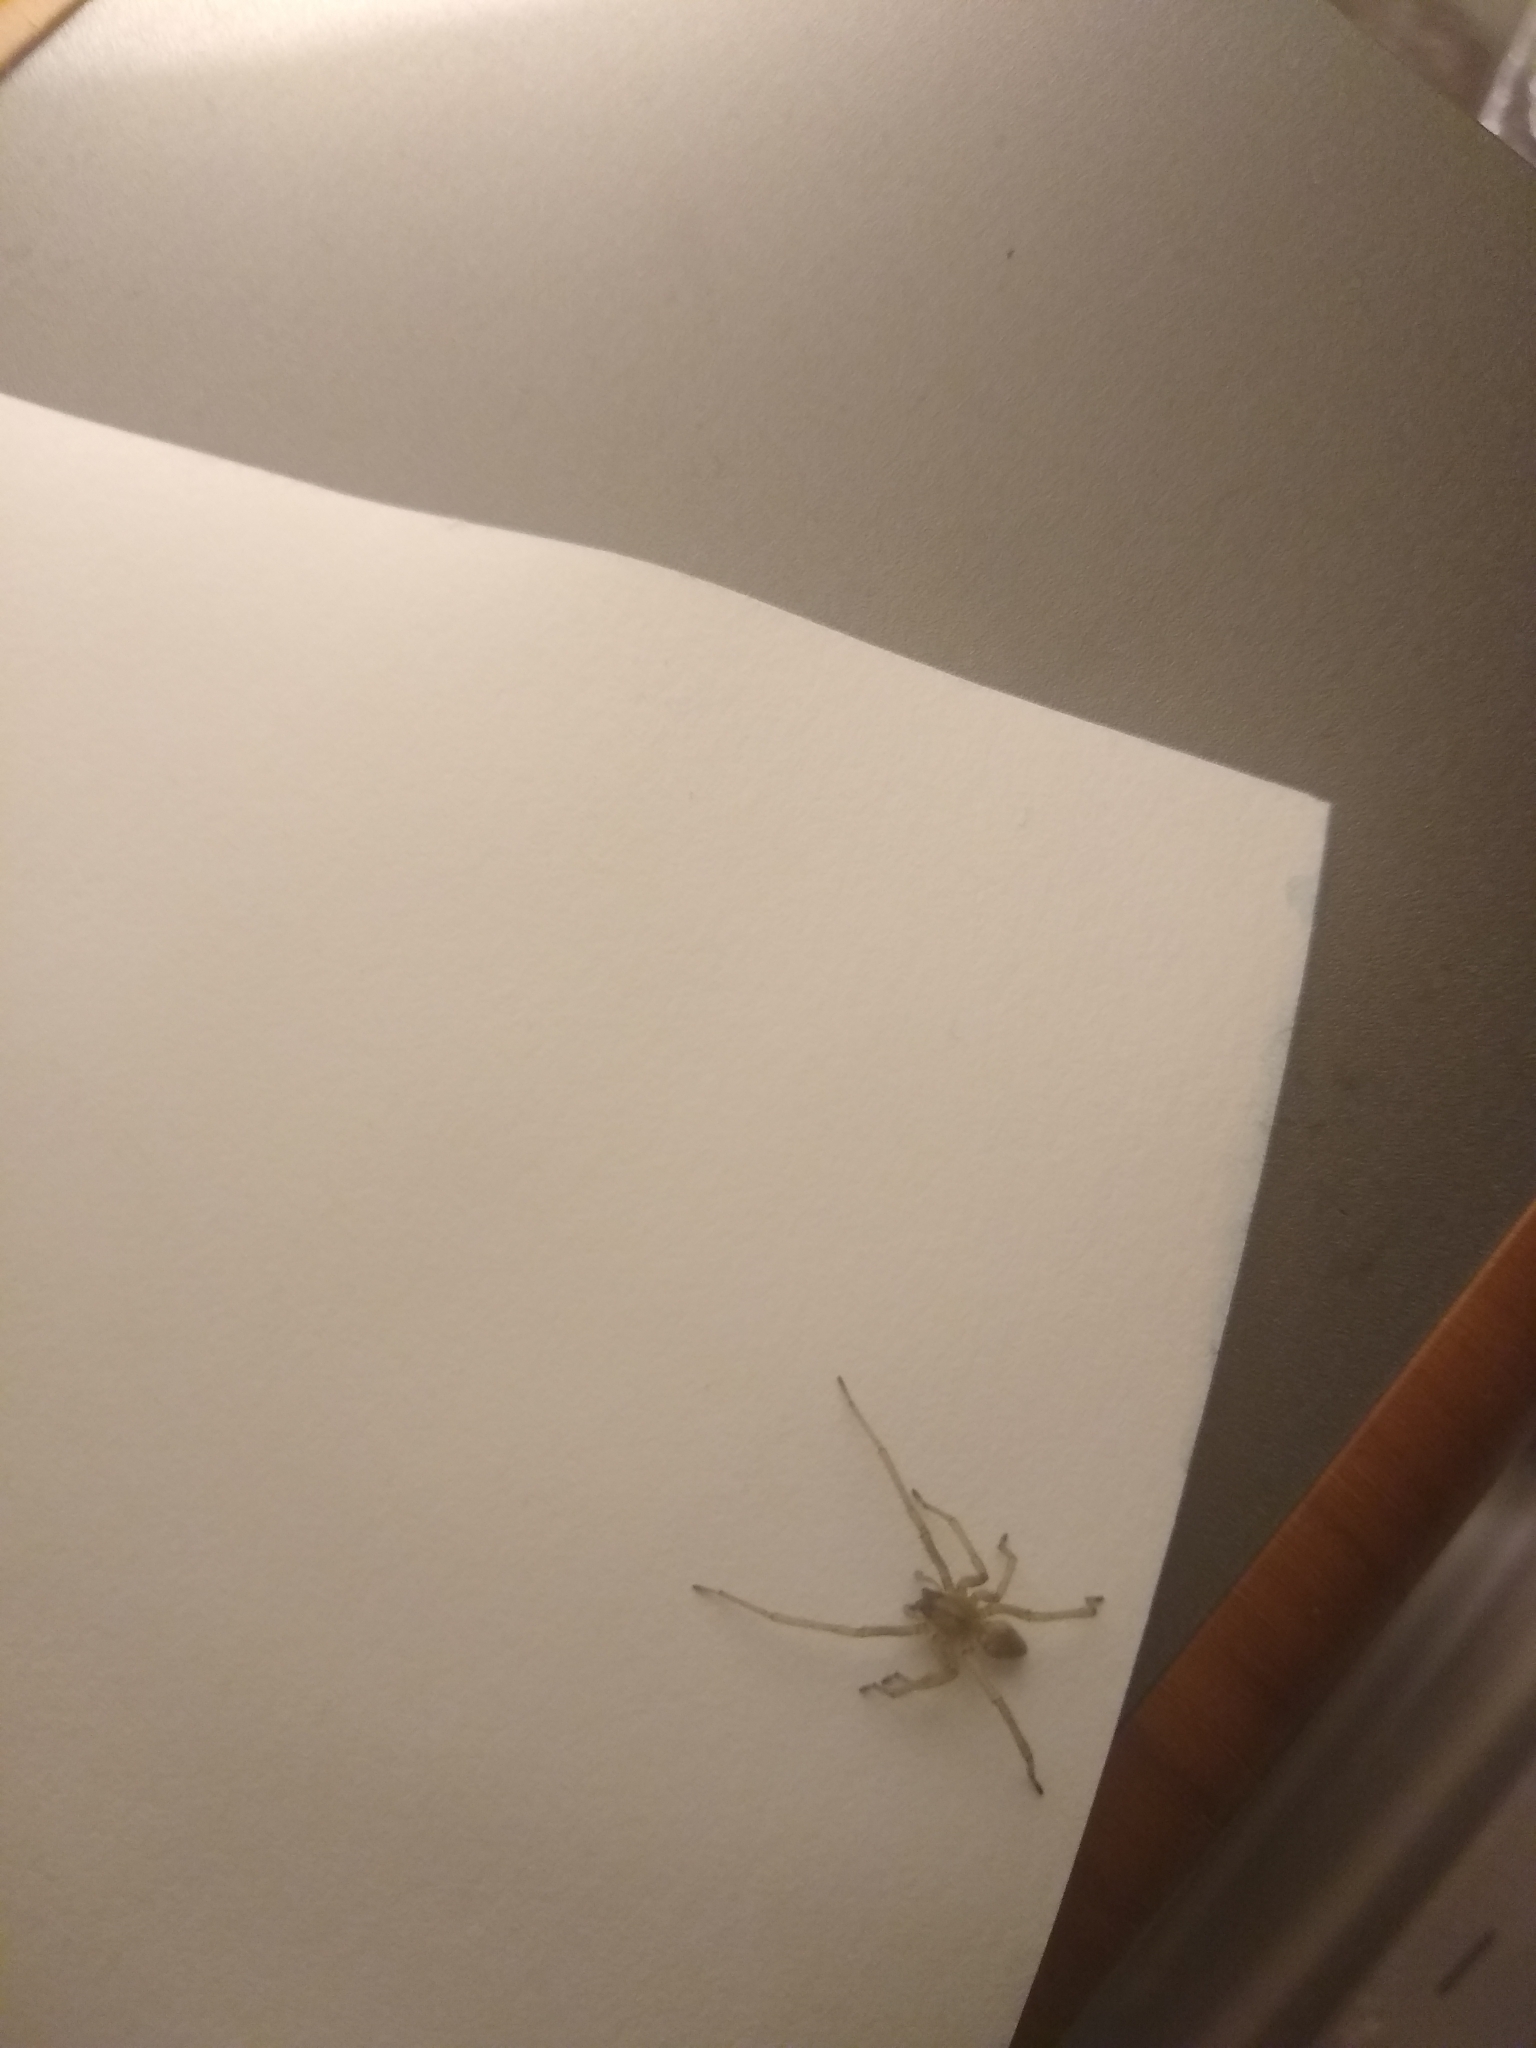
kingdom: Animalia
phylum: Arthropoda
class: Arachnida
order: Araneae
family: Cheiracanthiidae
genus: Cheiracanthium
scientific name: Cheiracanthium mildei
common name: Northern yellow sac spider
